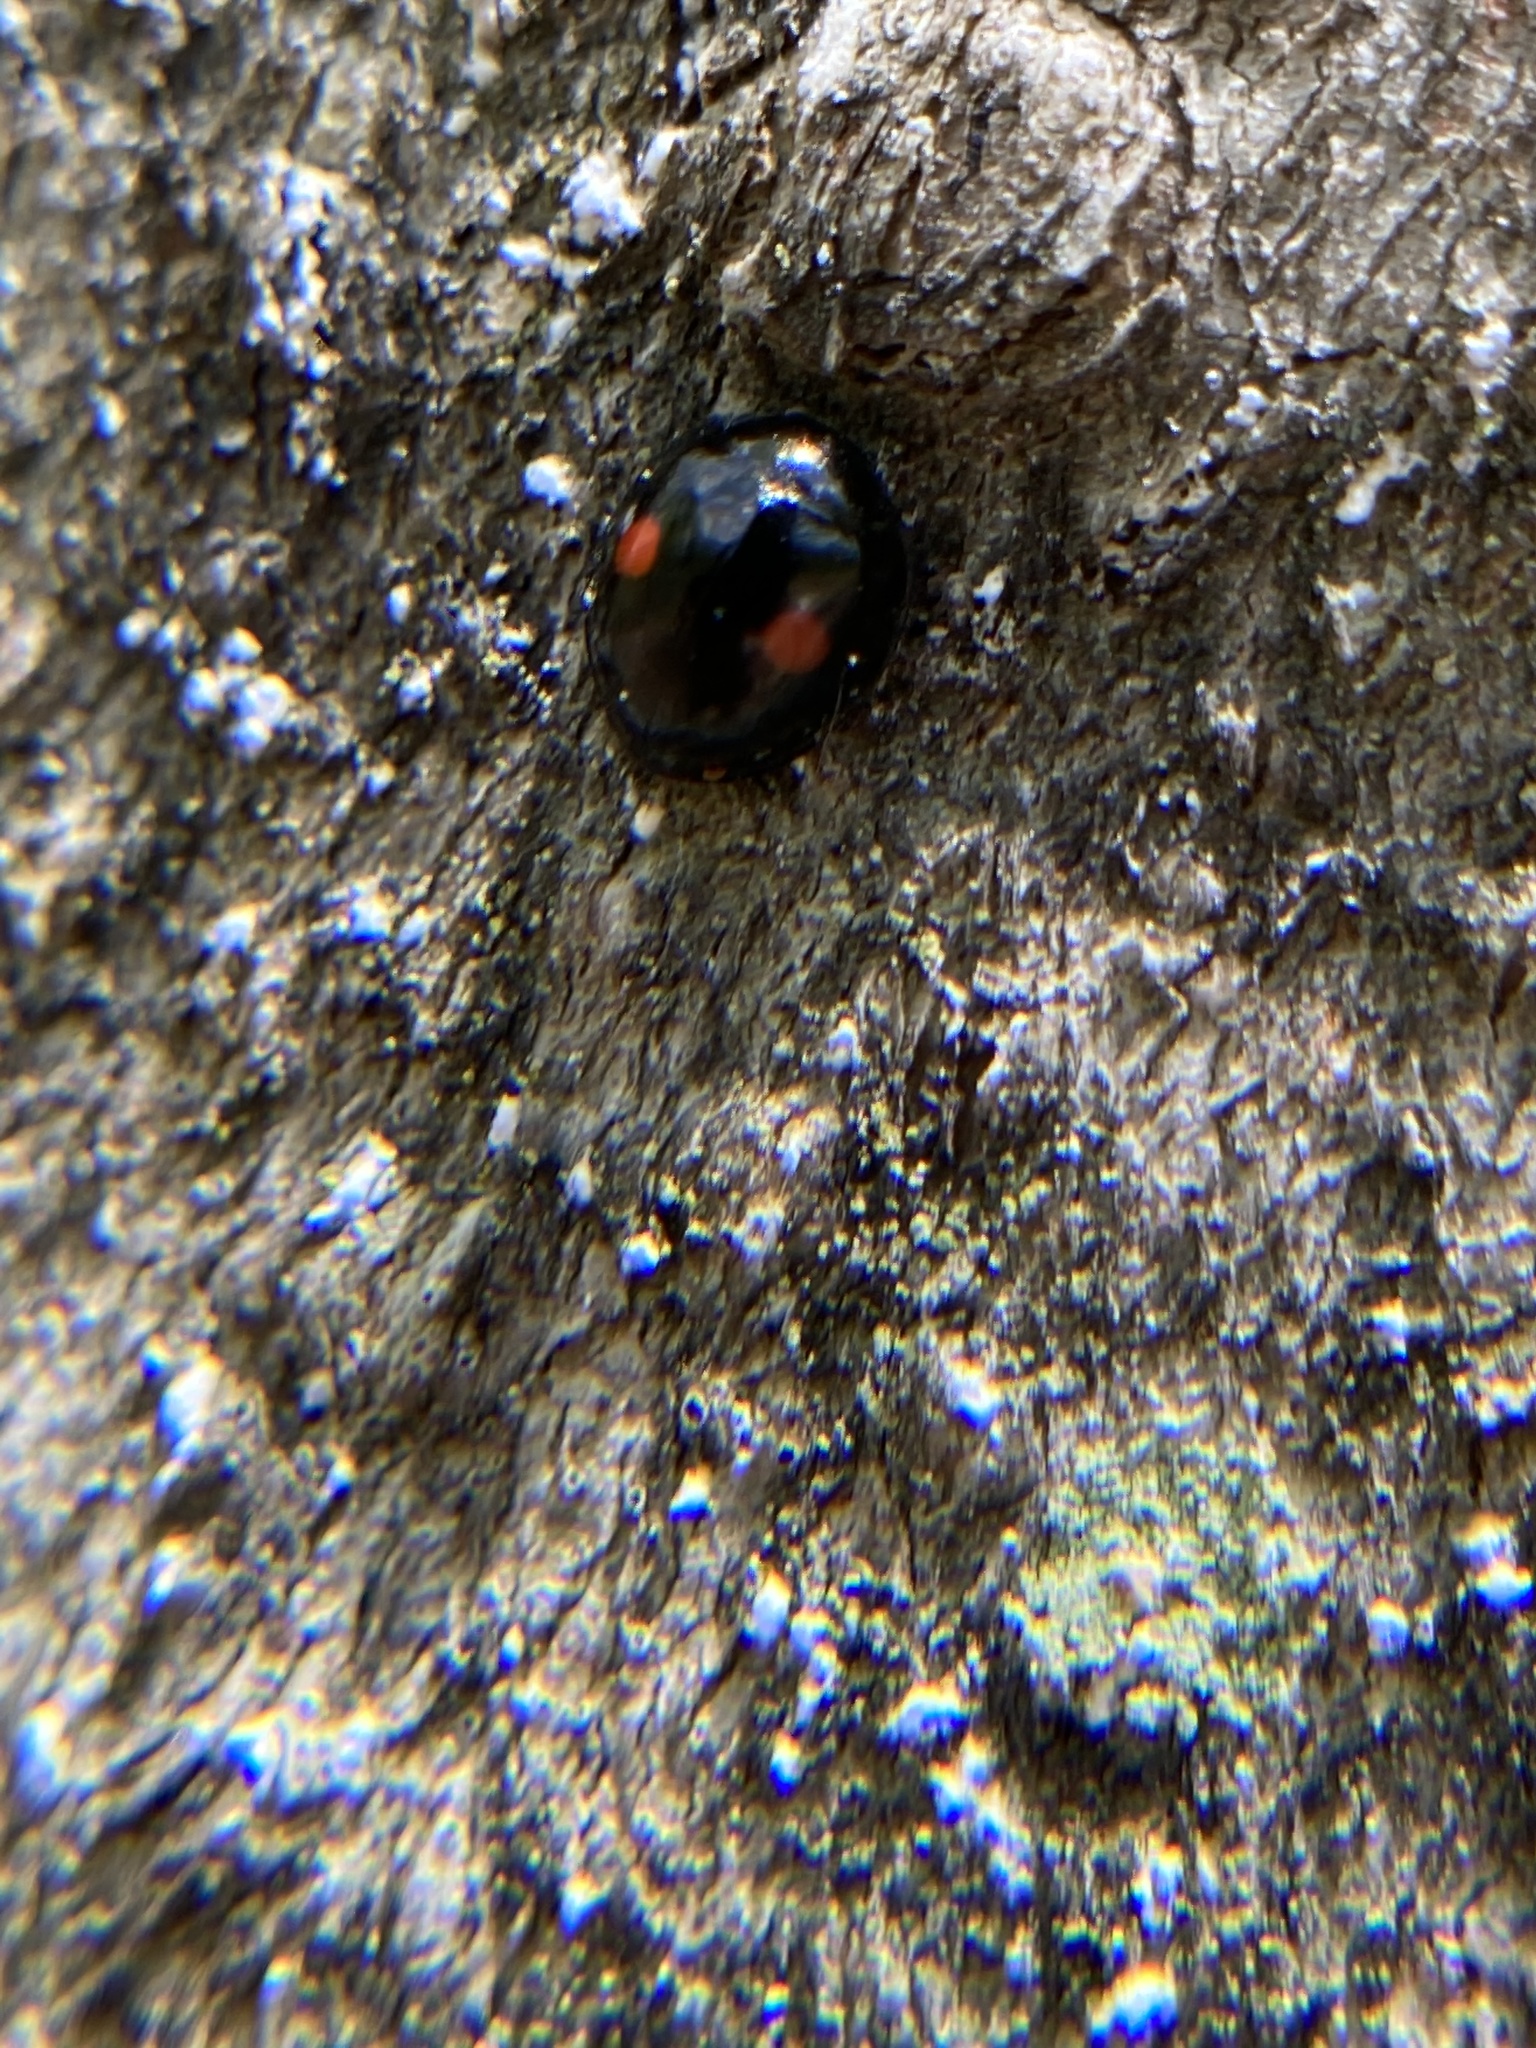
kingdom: Animalia
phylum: Arthropoda
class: Insecta
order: Coleoptera
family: Coccinellidae
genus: Chilocorus
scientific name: Chilocorus stigma
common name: Twicestabbed lady beetle
